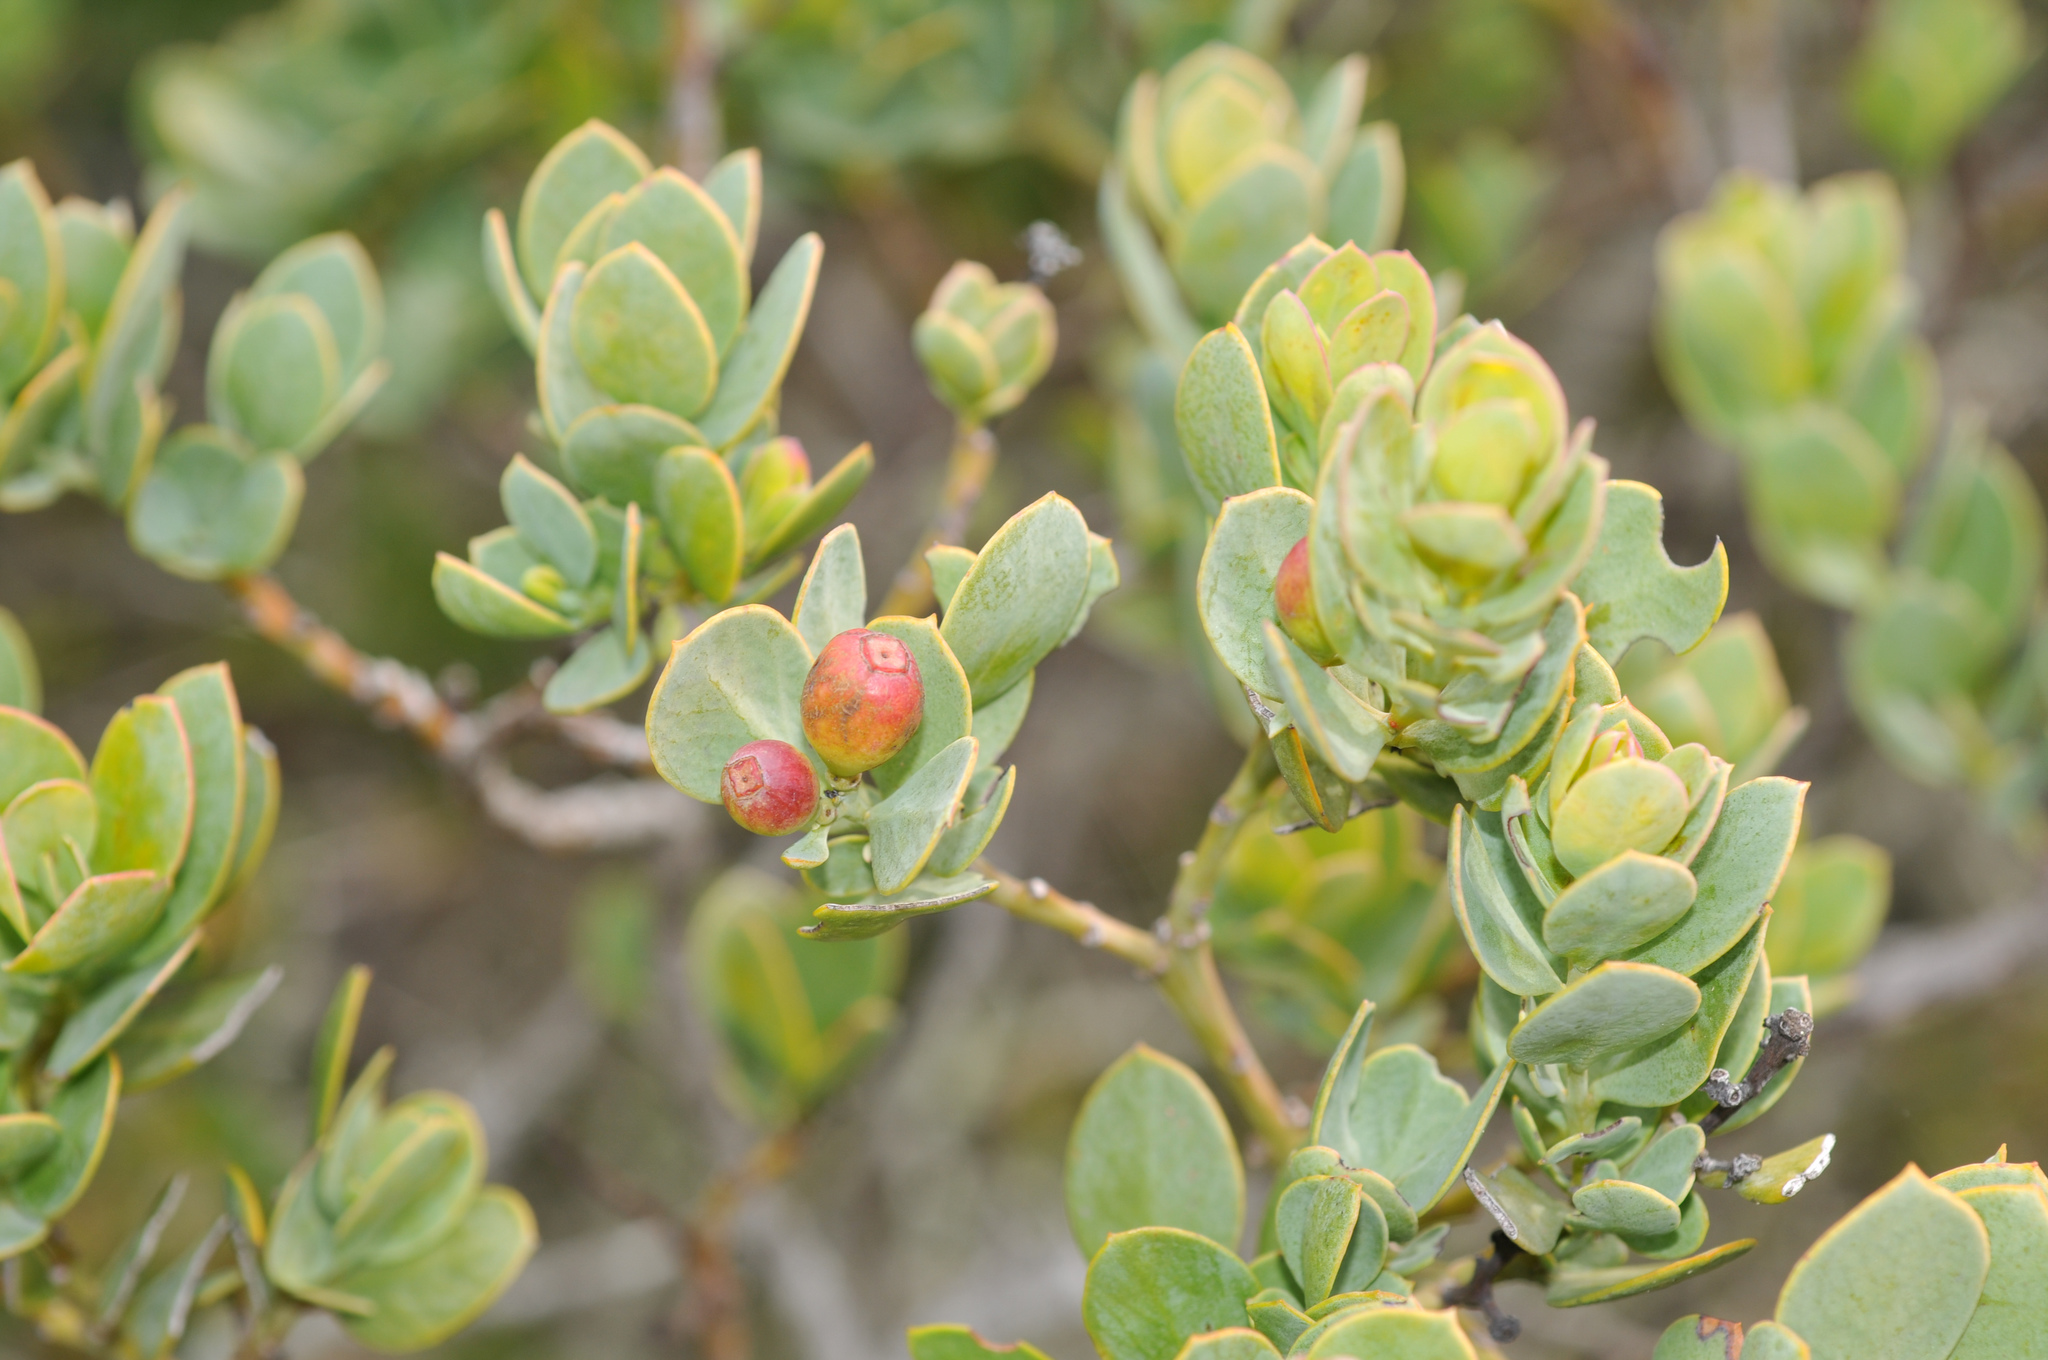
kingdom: Plantae
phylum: Tracheophyta
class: Magnoliopsida
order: Santalales
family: Santalaceae
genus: Osyris
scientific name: Osyris compressa
